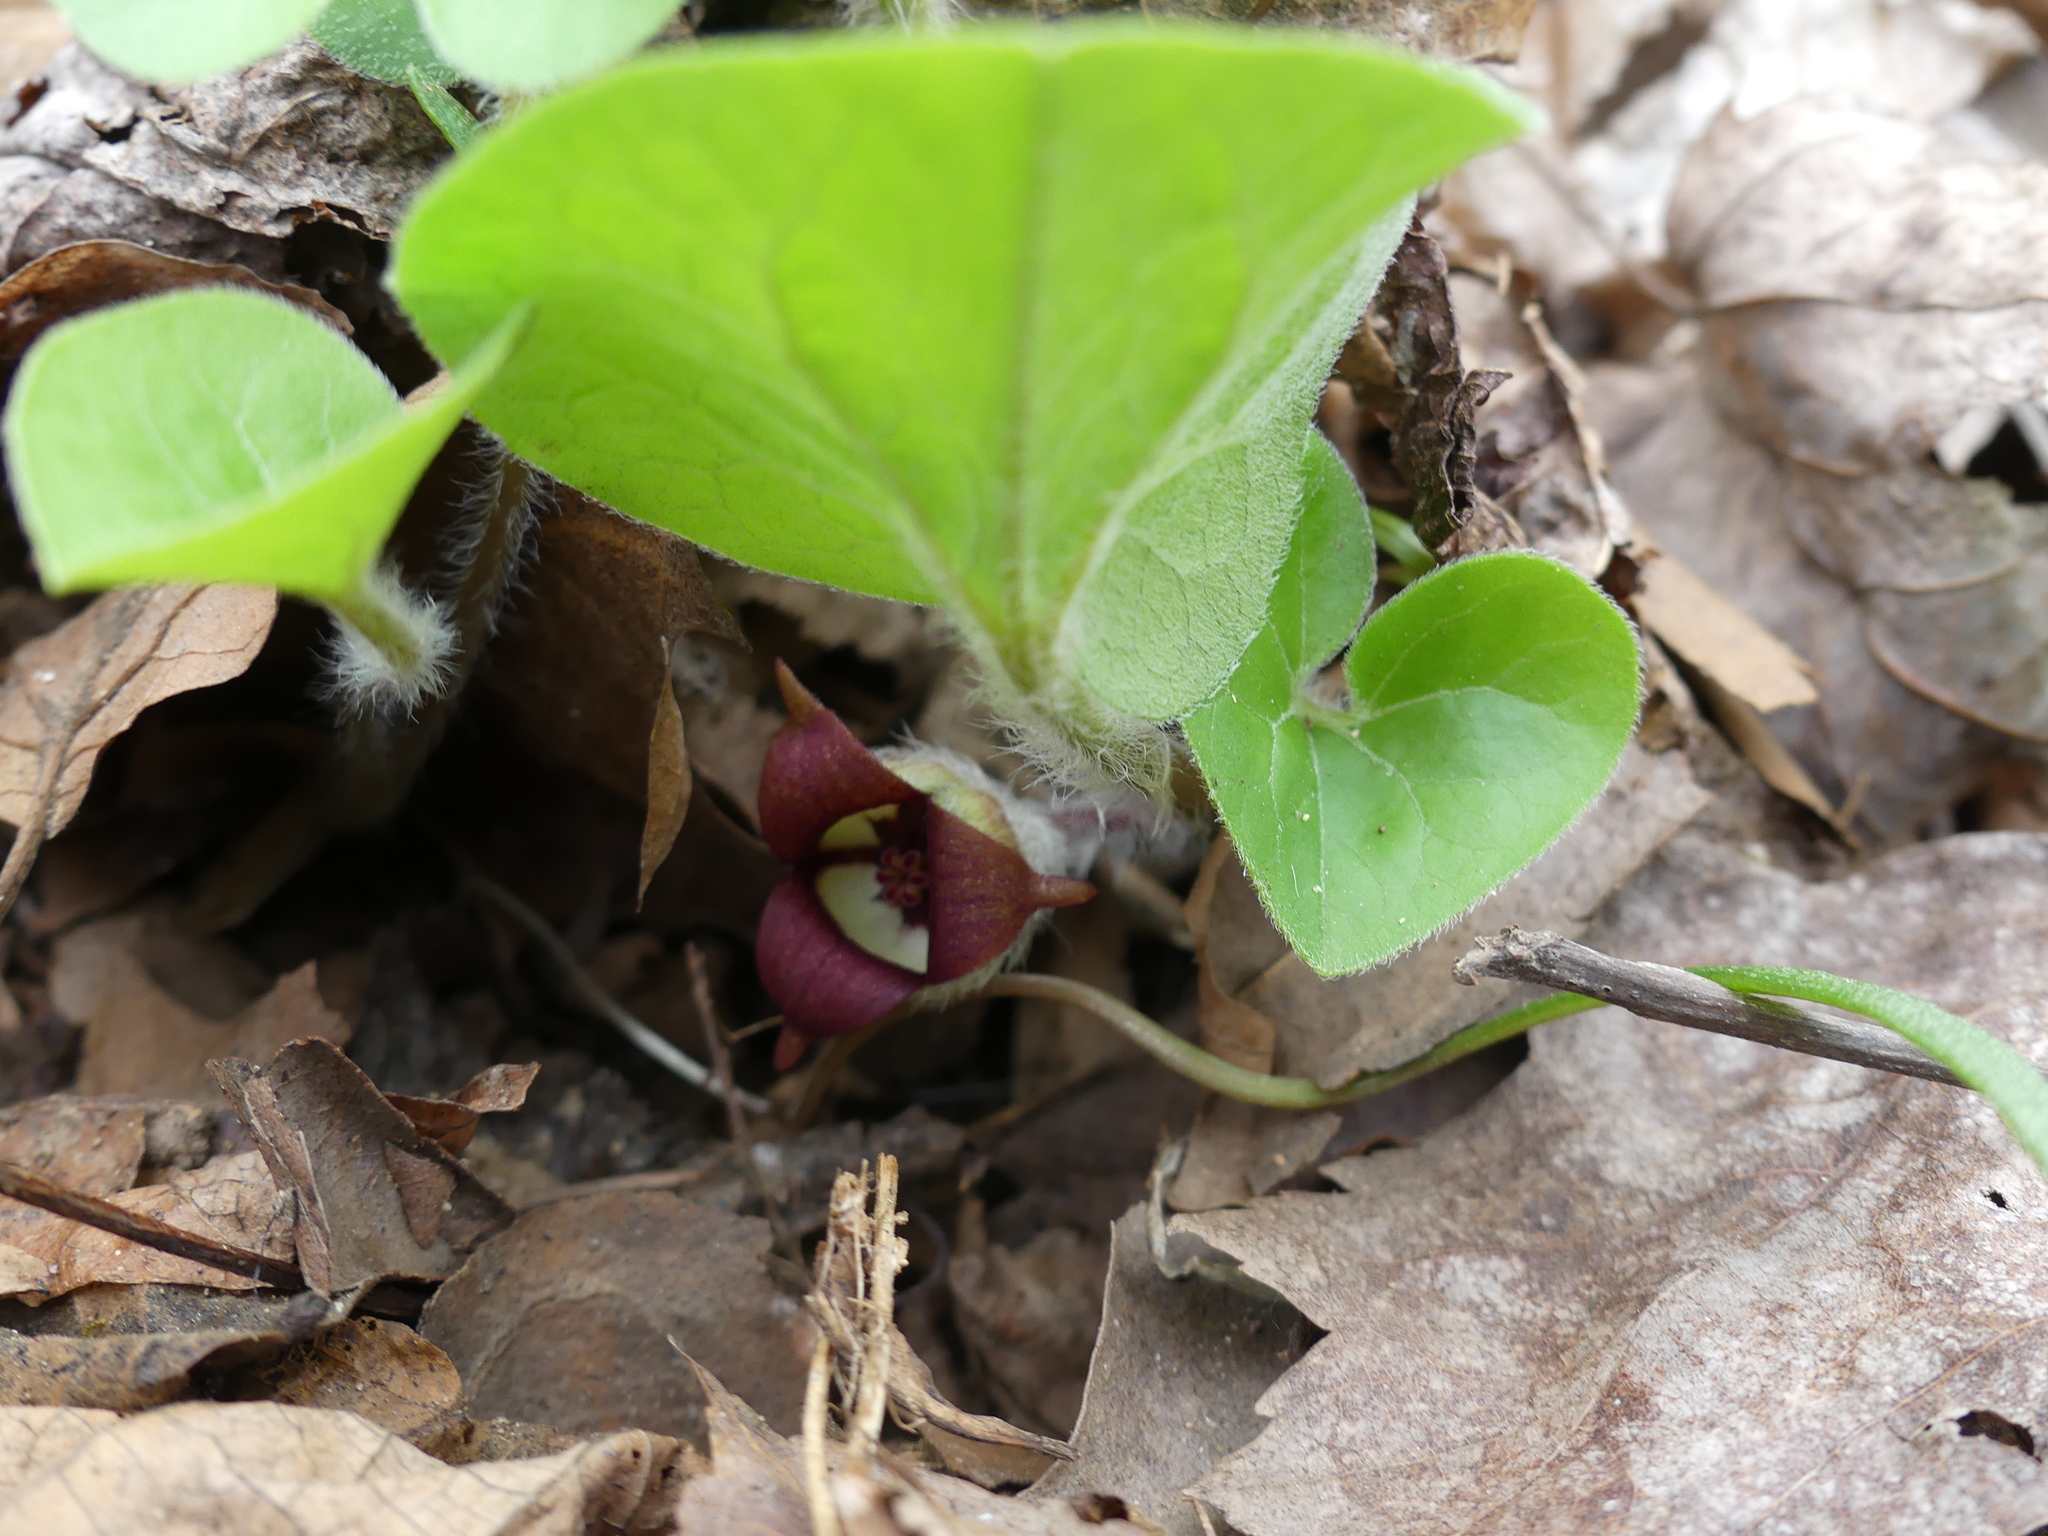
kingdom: Plantae
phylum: Tracheophyta
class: Magnoliopsida
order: Piperales
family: Aristolochiaceae
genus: Asarum
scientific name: Asarum canadense
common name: Wild ginger
